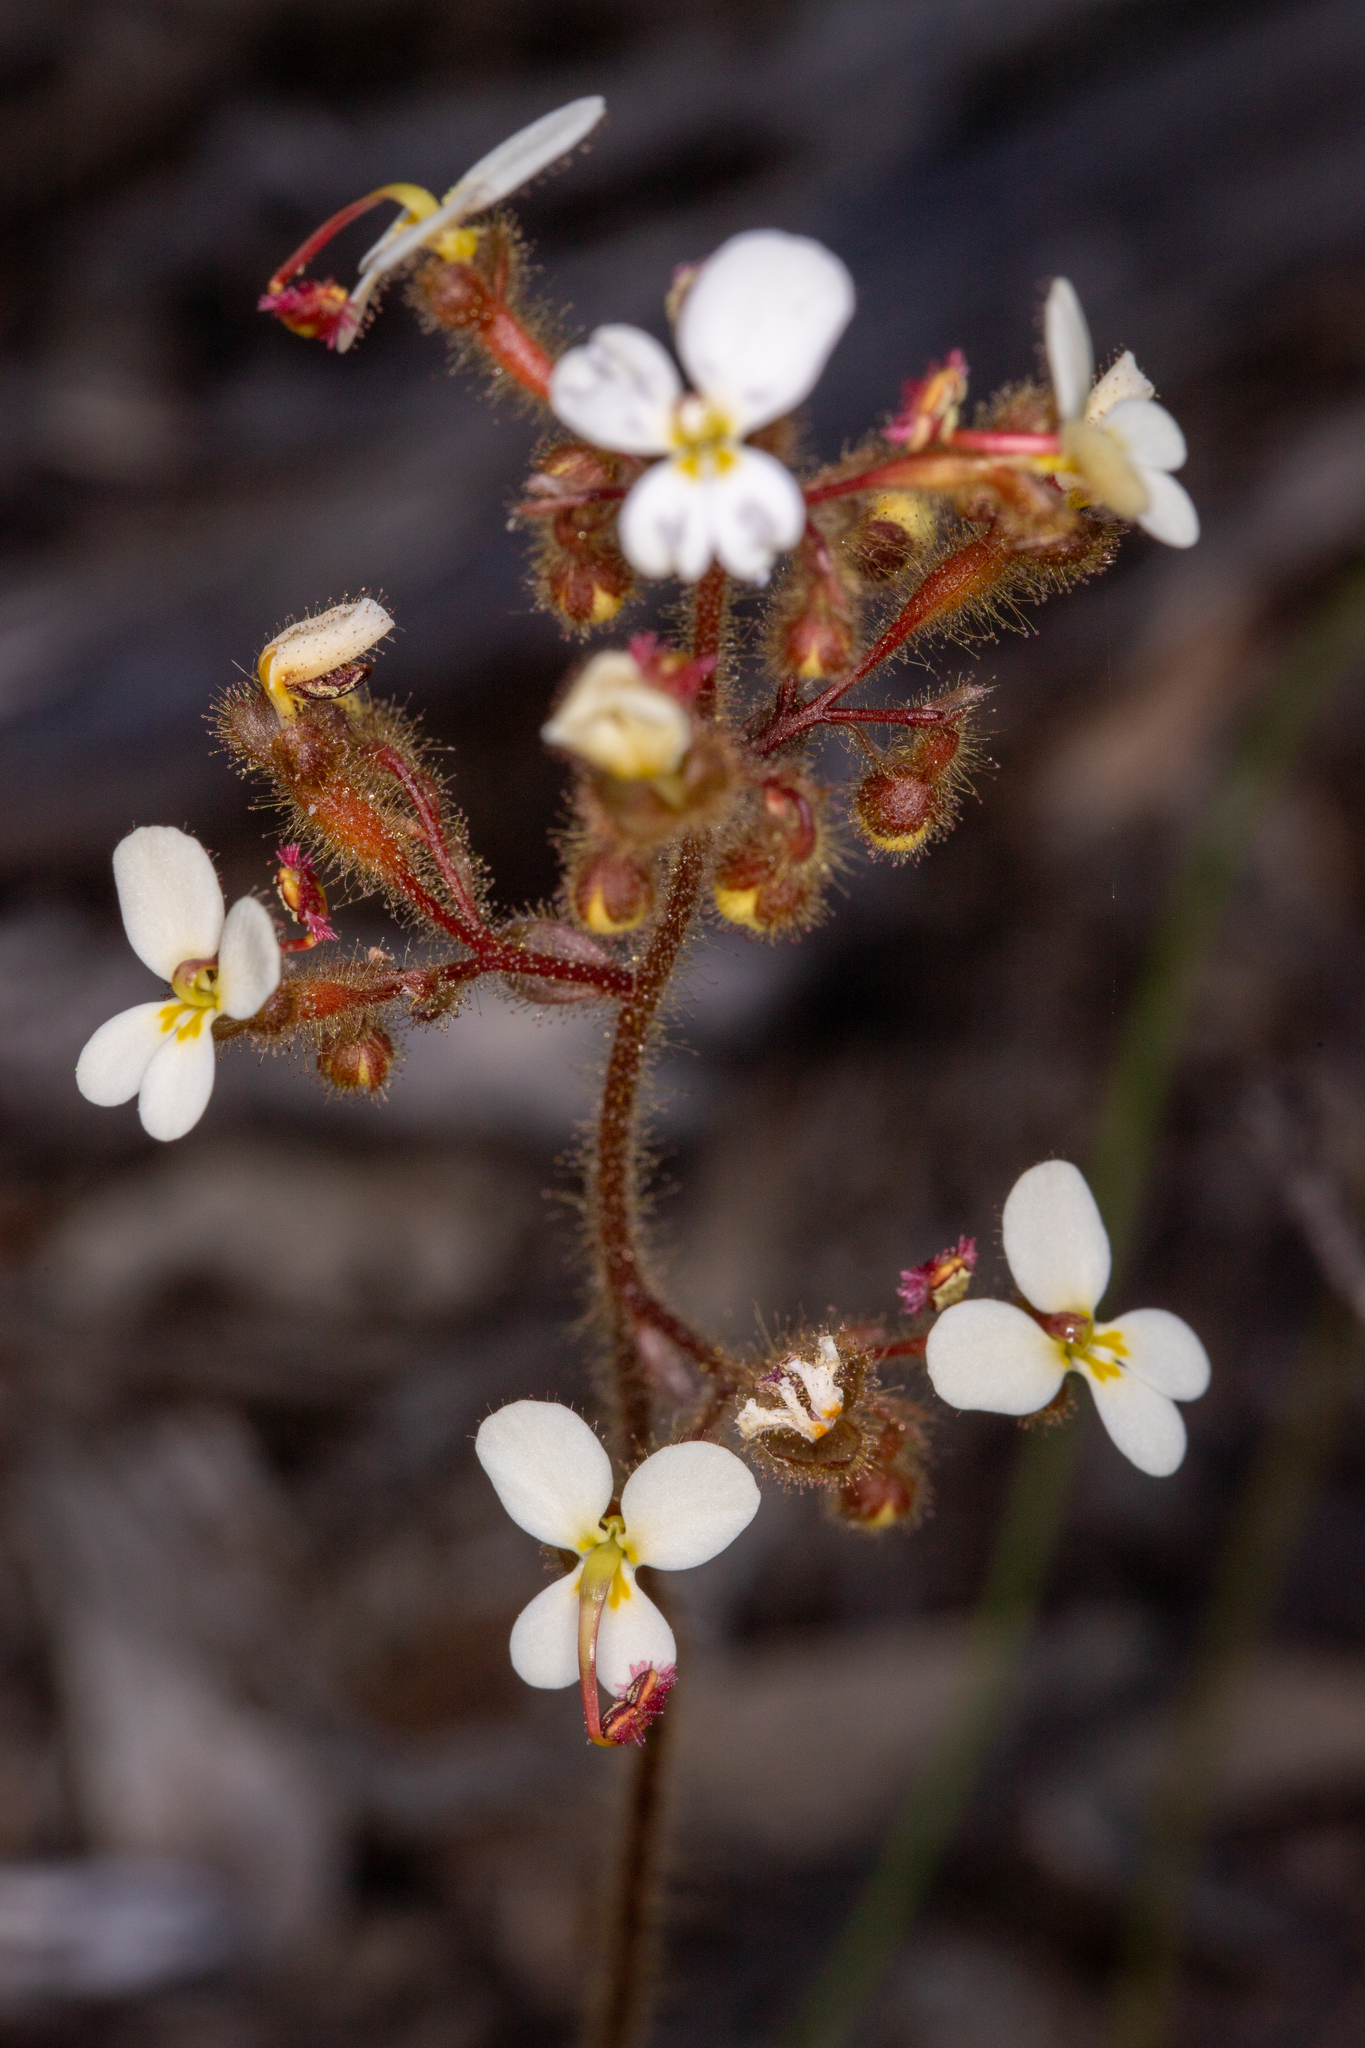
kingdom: Plantae
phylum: Tracheophyta
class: Magnoliopsida
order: Asterales
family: Stylidiaceae
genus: Stylidium
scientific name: Stylidium ciliatum
